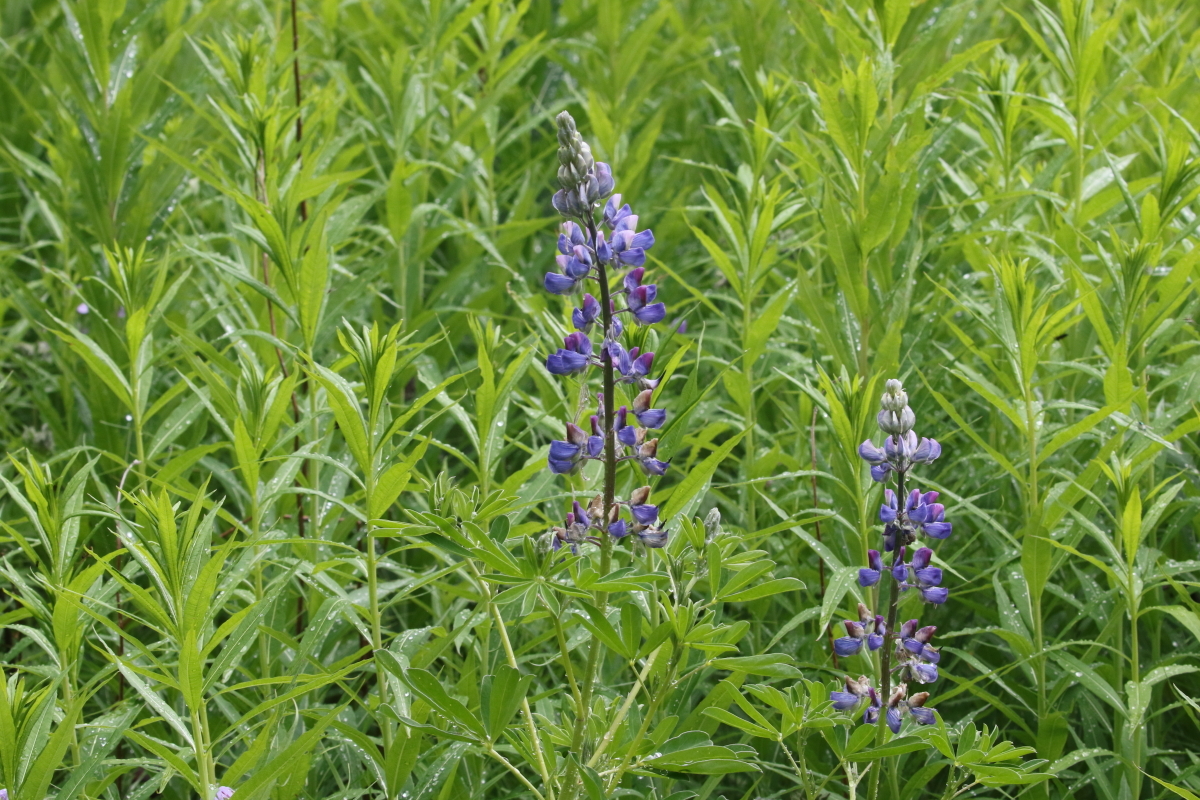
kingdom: Plantae
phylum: Tracheophyta
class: Magnoliopsida
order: Fabales
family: Fabaceae
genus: Lupinus
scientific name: Lupinus nootkatensis
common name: Nootka lupine
